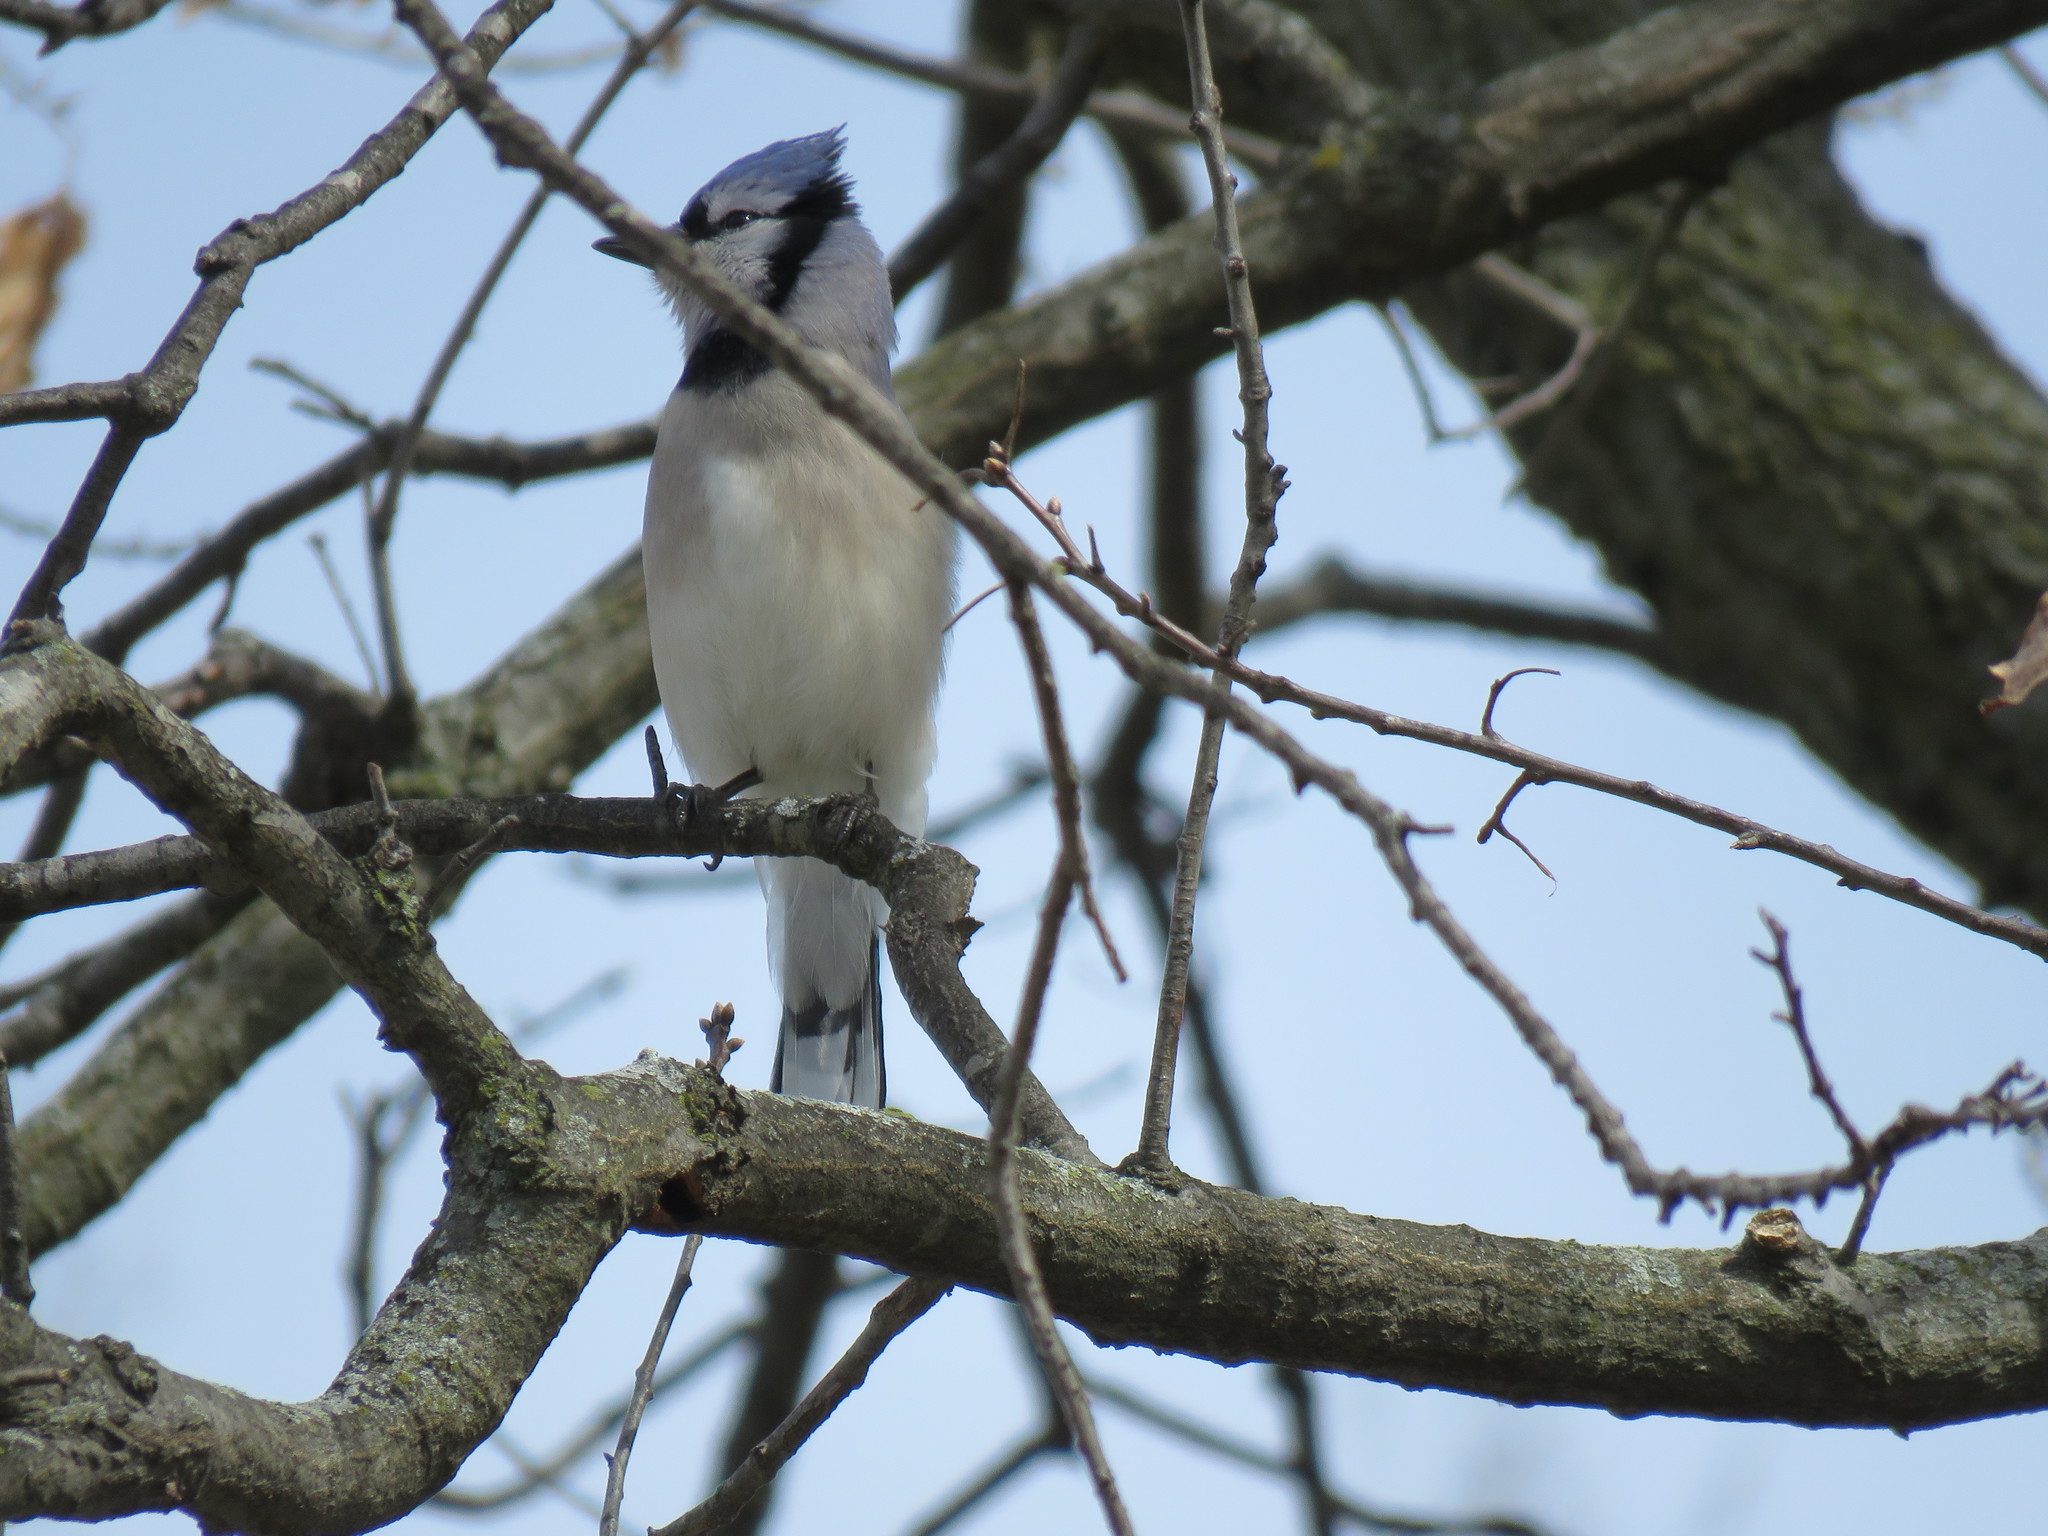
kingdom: Animalia
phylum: Chordata
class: Aves
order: Passeriformes
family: Corvidae
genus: Cyanocitta
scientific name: Cyanocitta cristata
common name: Blue jay
